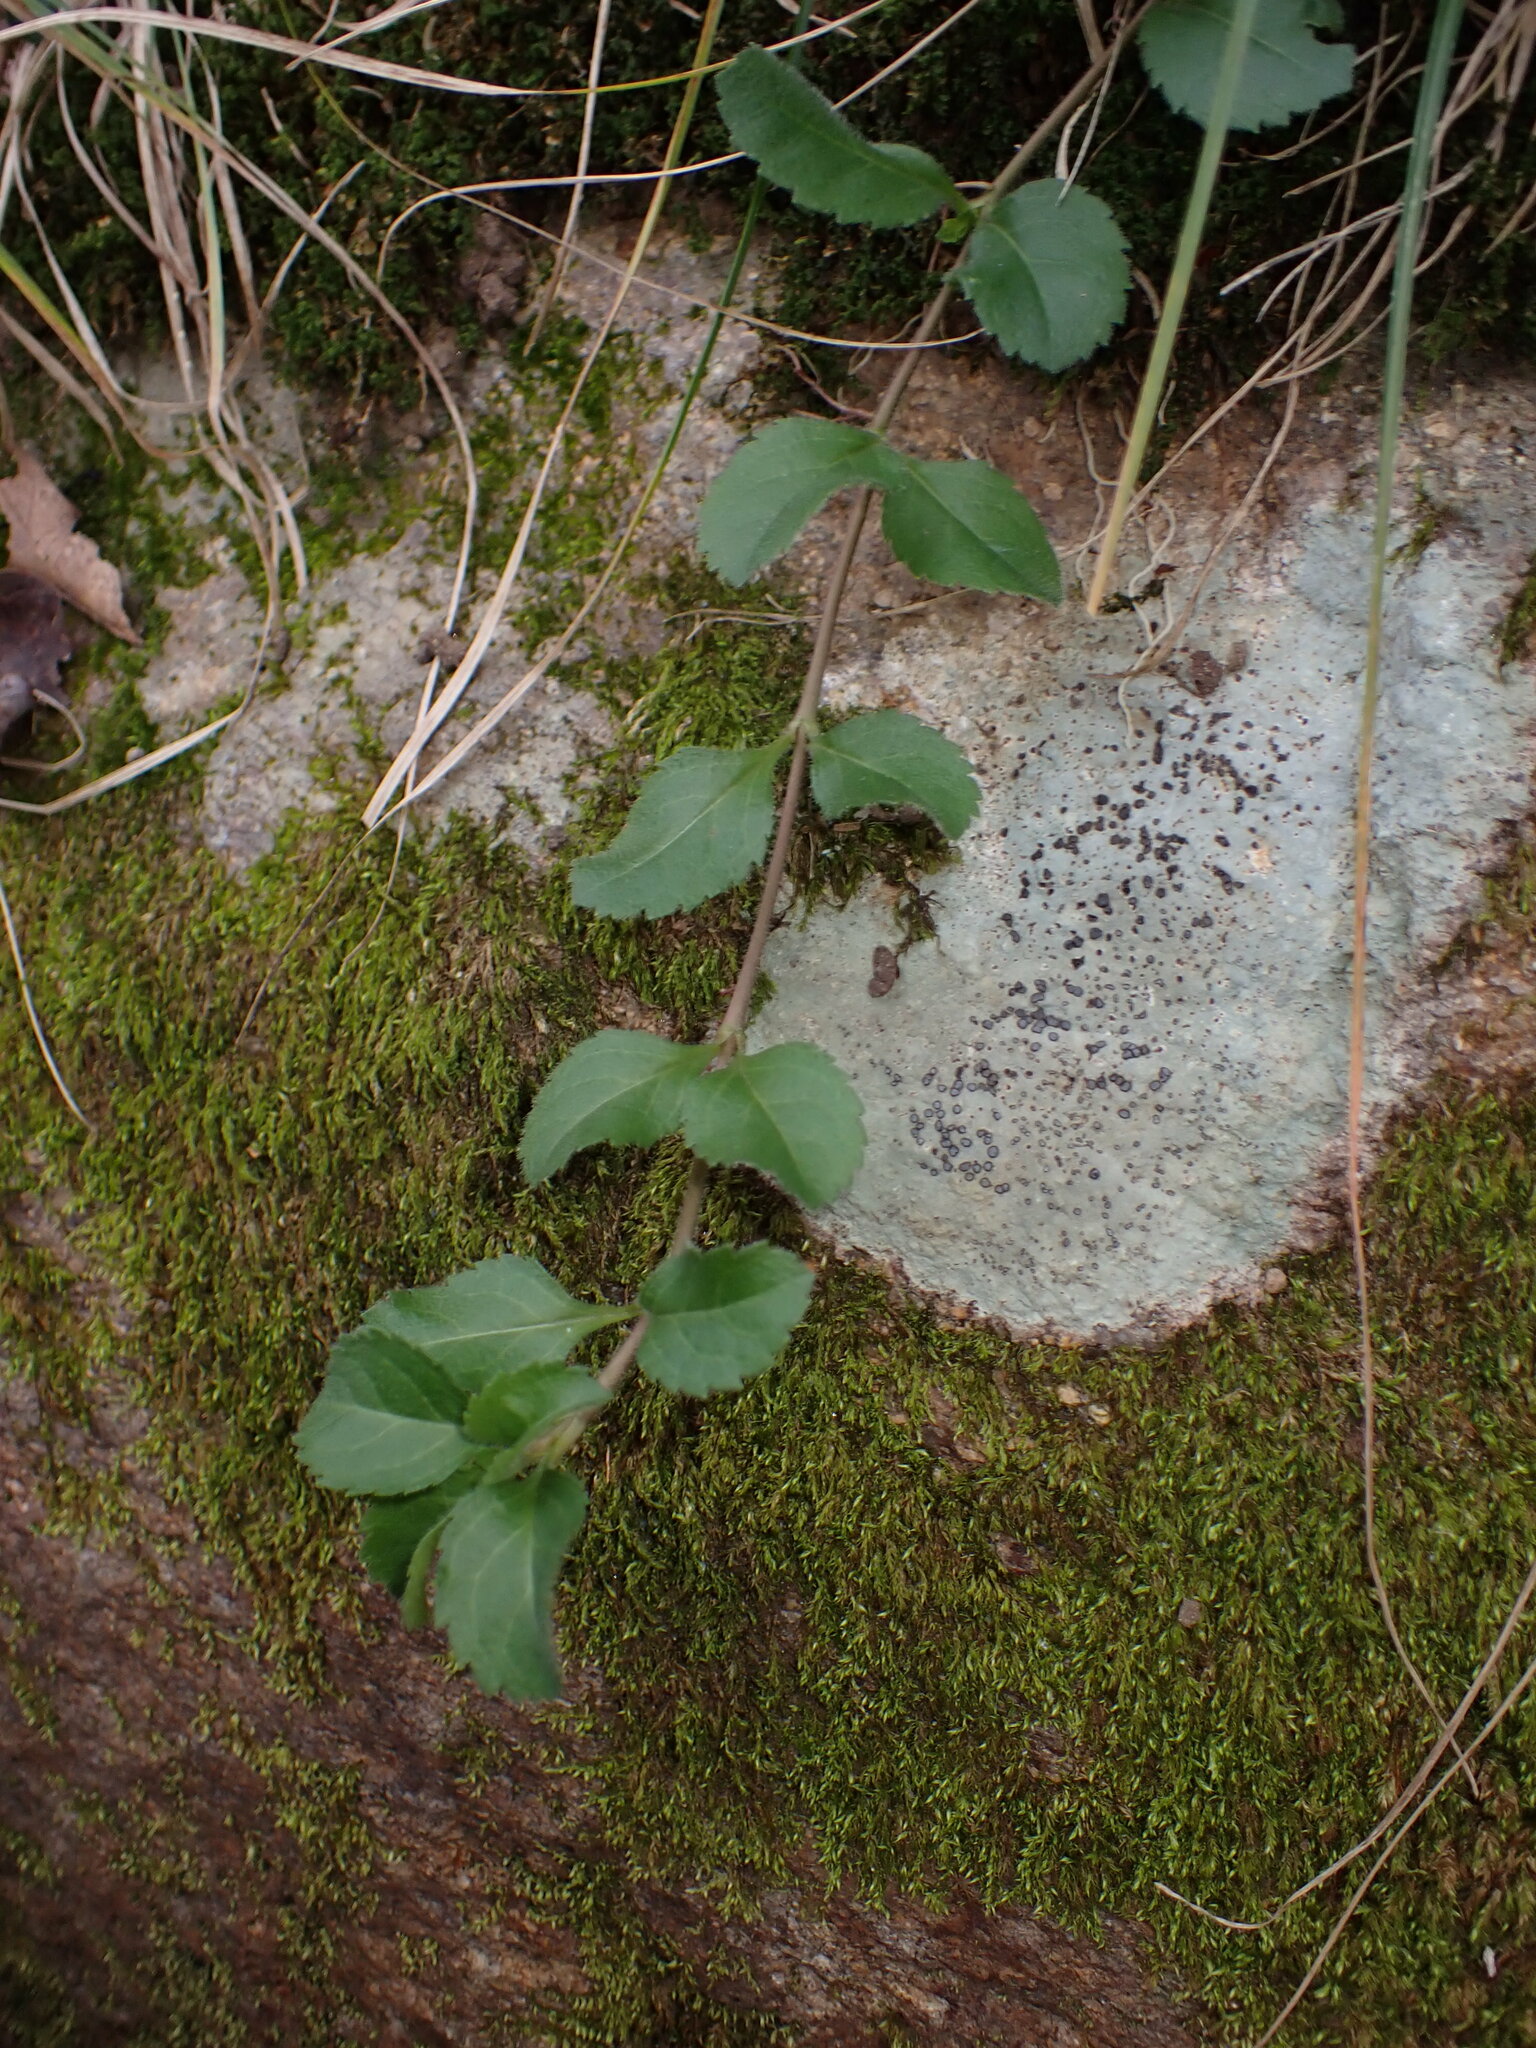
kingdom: Plantae
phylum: Tracheophyta
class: Magnoliopsida
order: Lamiales
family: Plantaginaceae
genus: Veronica
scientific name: Veronica officinalis
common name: Common speedwell
